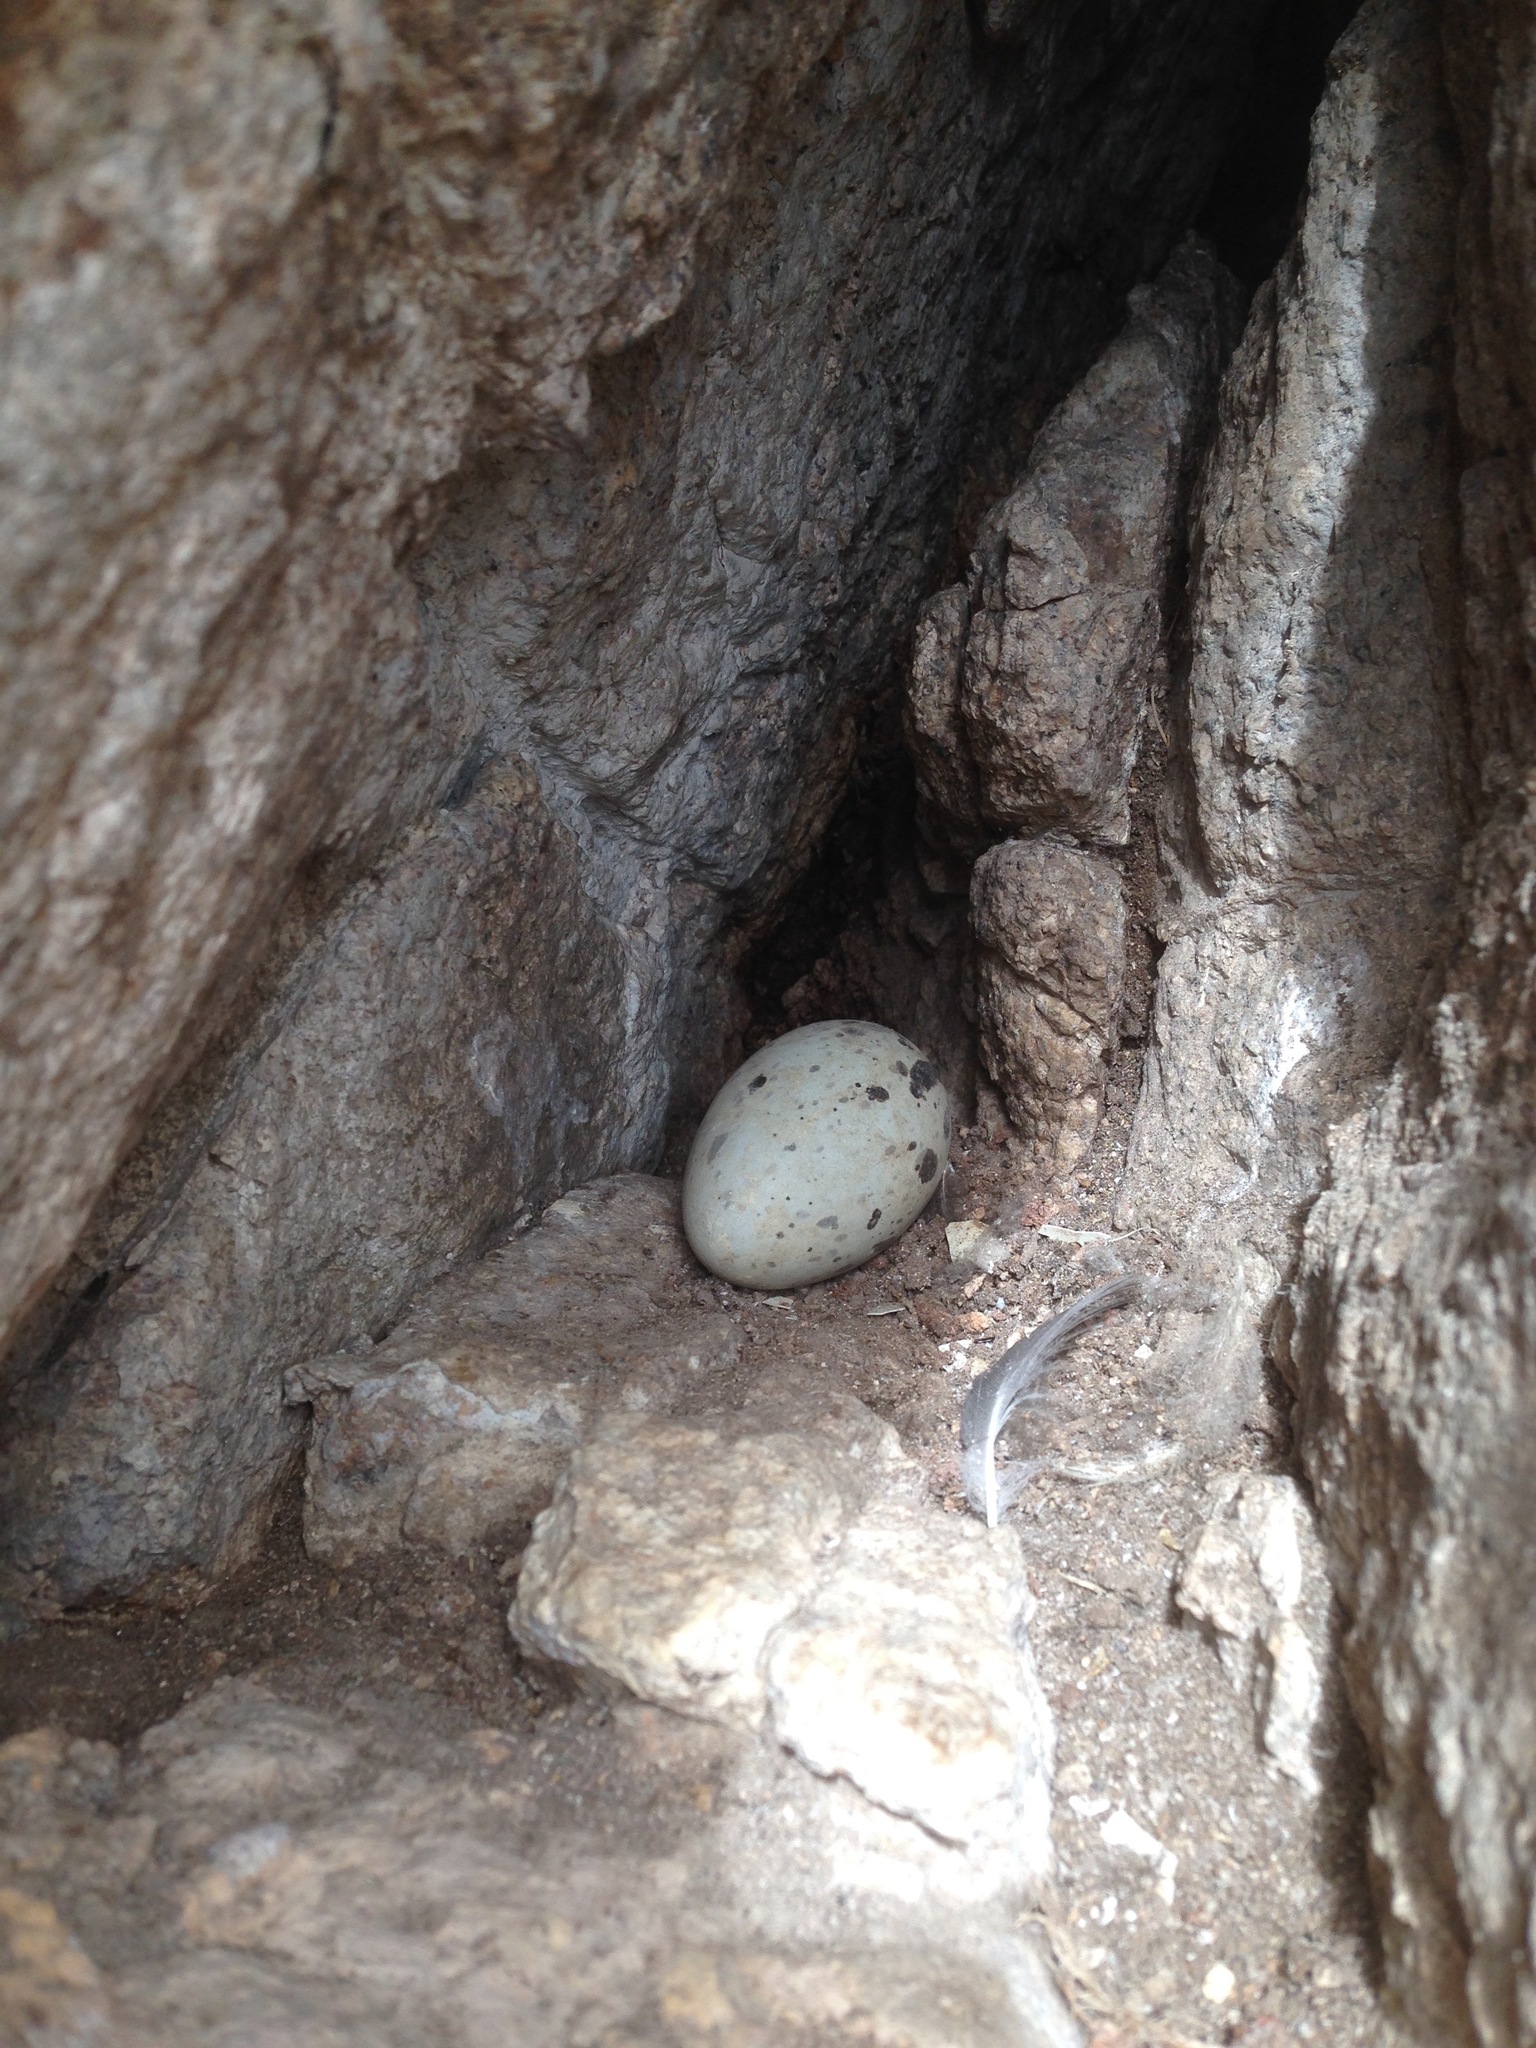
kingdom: Animalia
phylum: Chordata
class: Aves
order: Charadriiformes
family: Alcidae
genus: Cepphus
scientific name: Cepphus columba
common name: Pigeon guillemot
